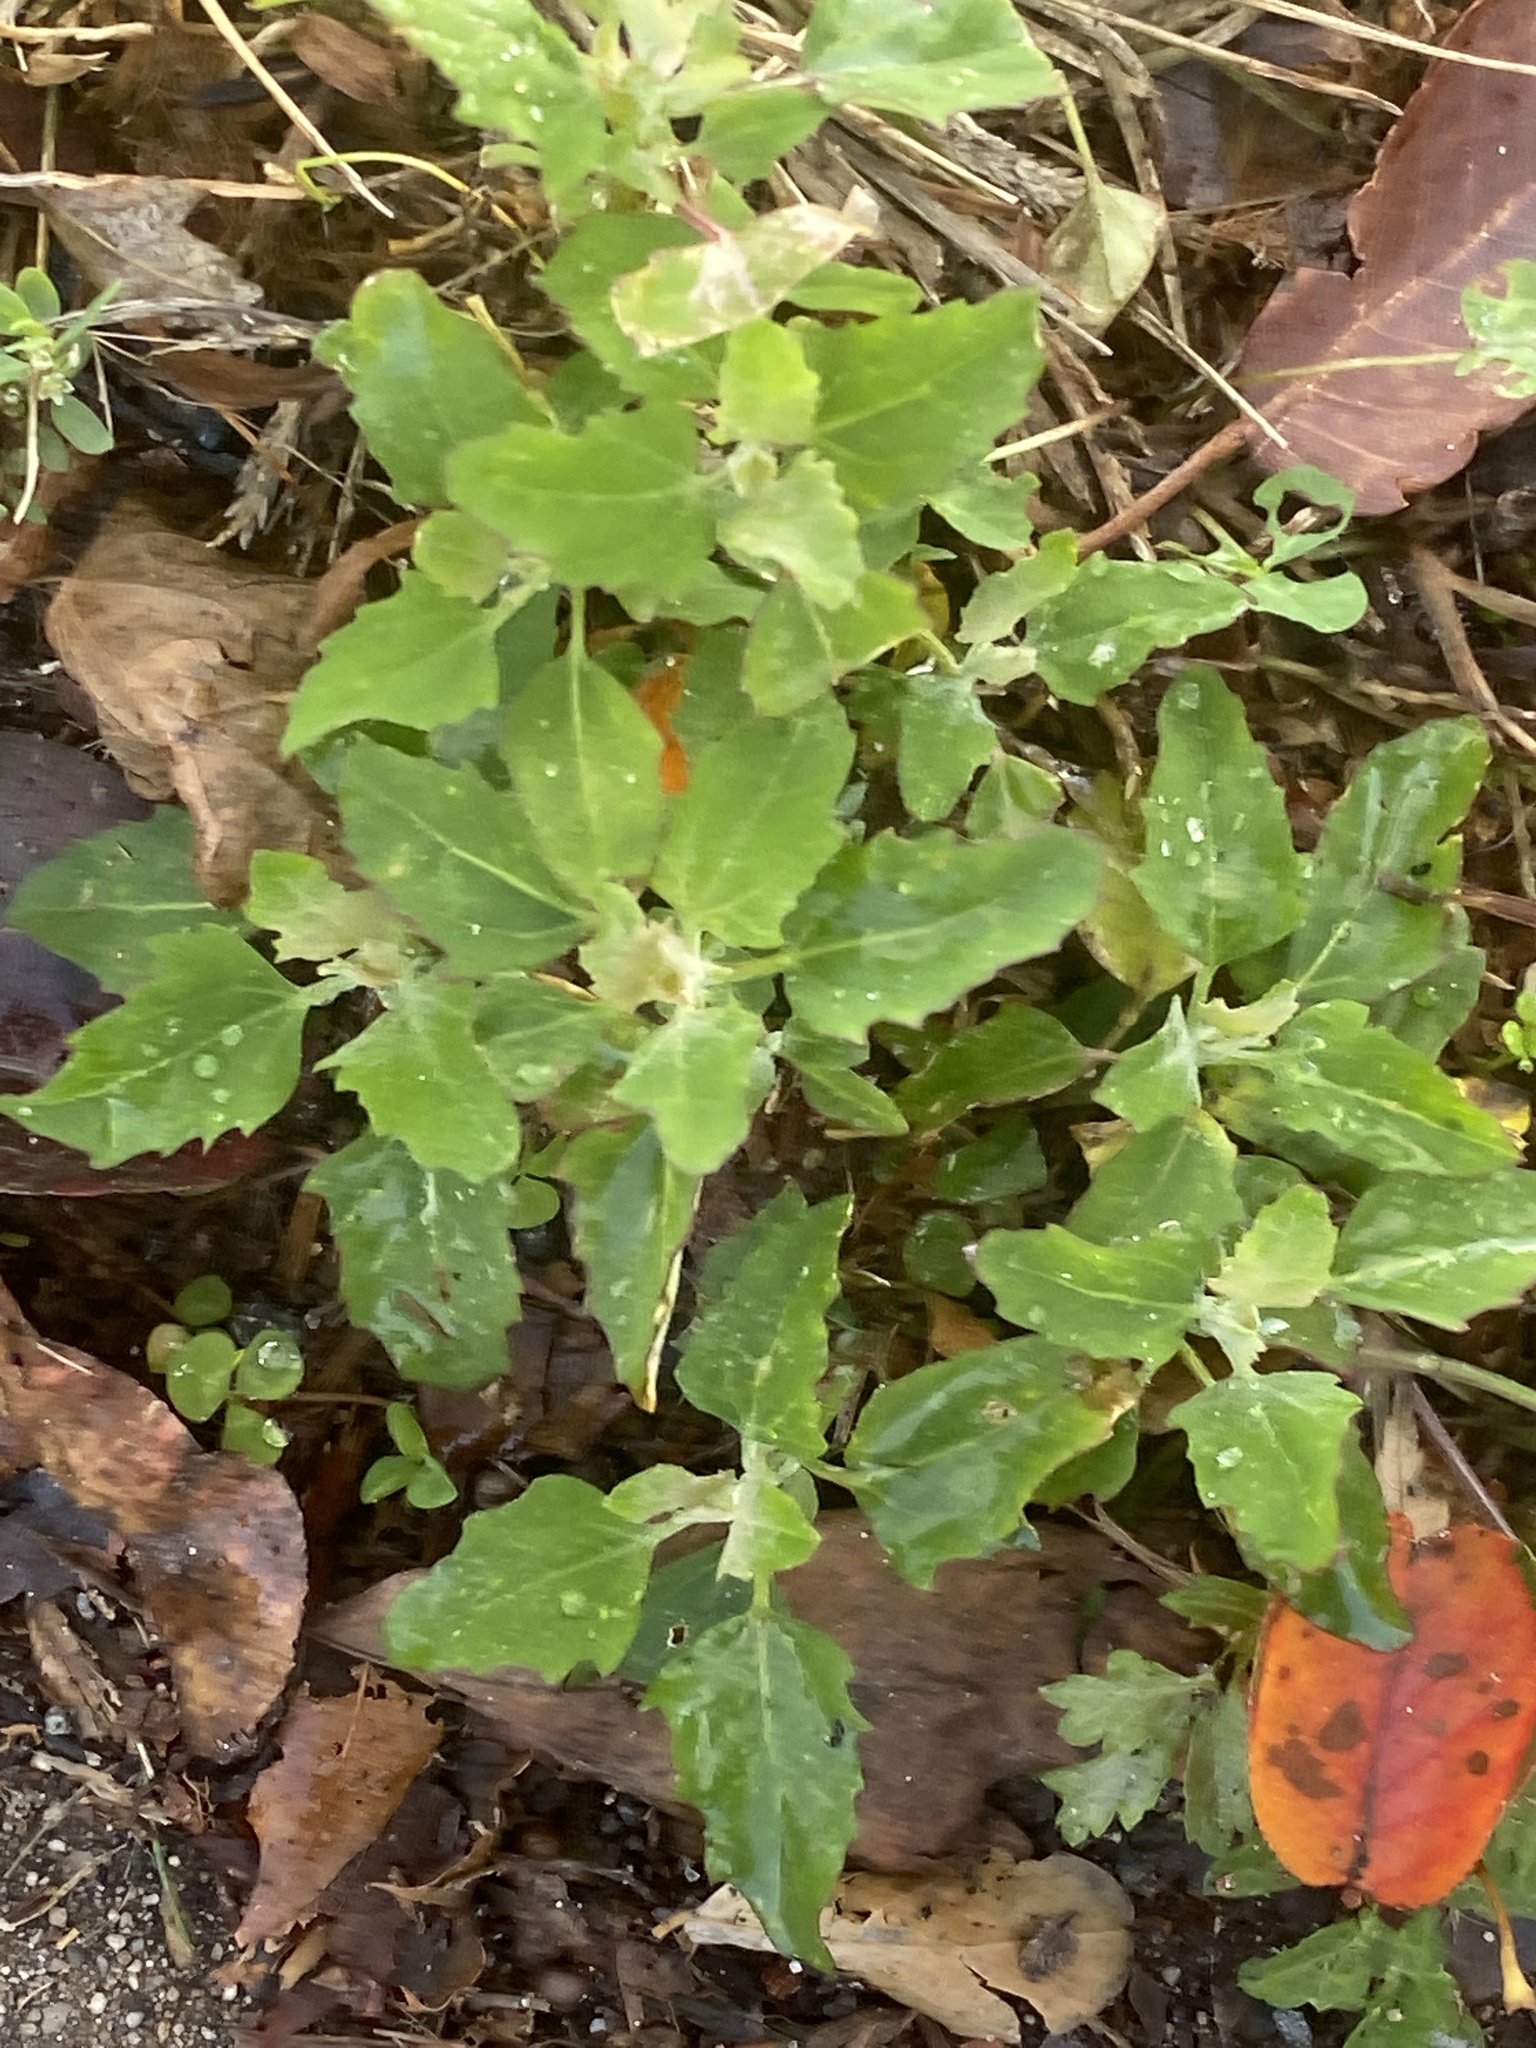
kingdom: Plantae
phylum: Tracheophyta
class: Magnoliopsida
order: Caryophyllales
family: Amaranthaceae
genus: Chenopodium
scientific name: Chenopodium album
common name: Fat-hen
